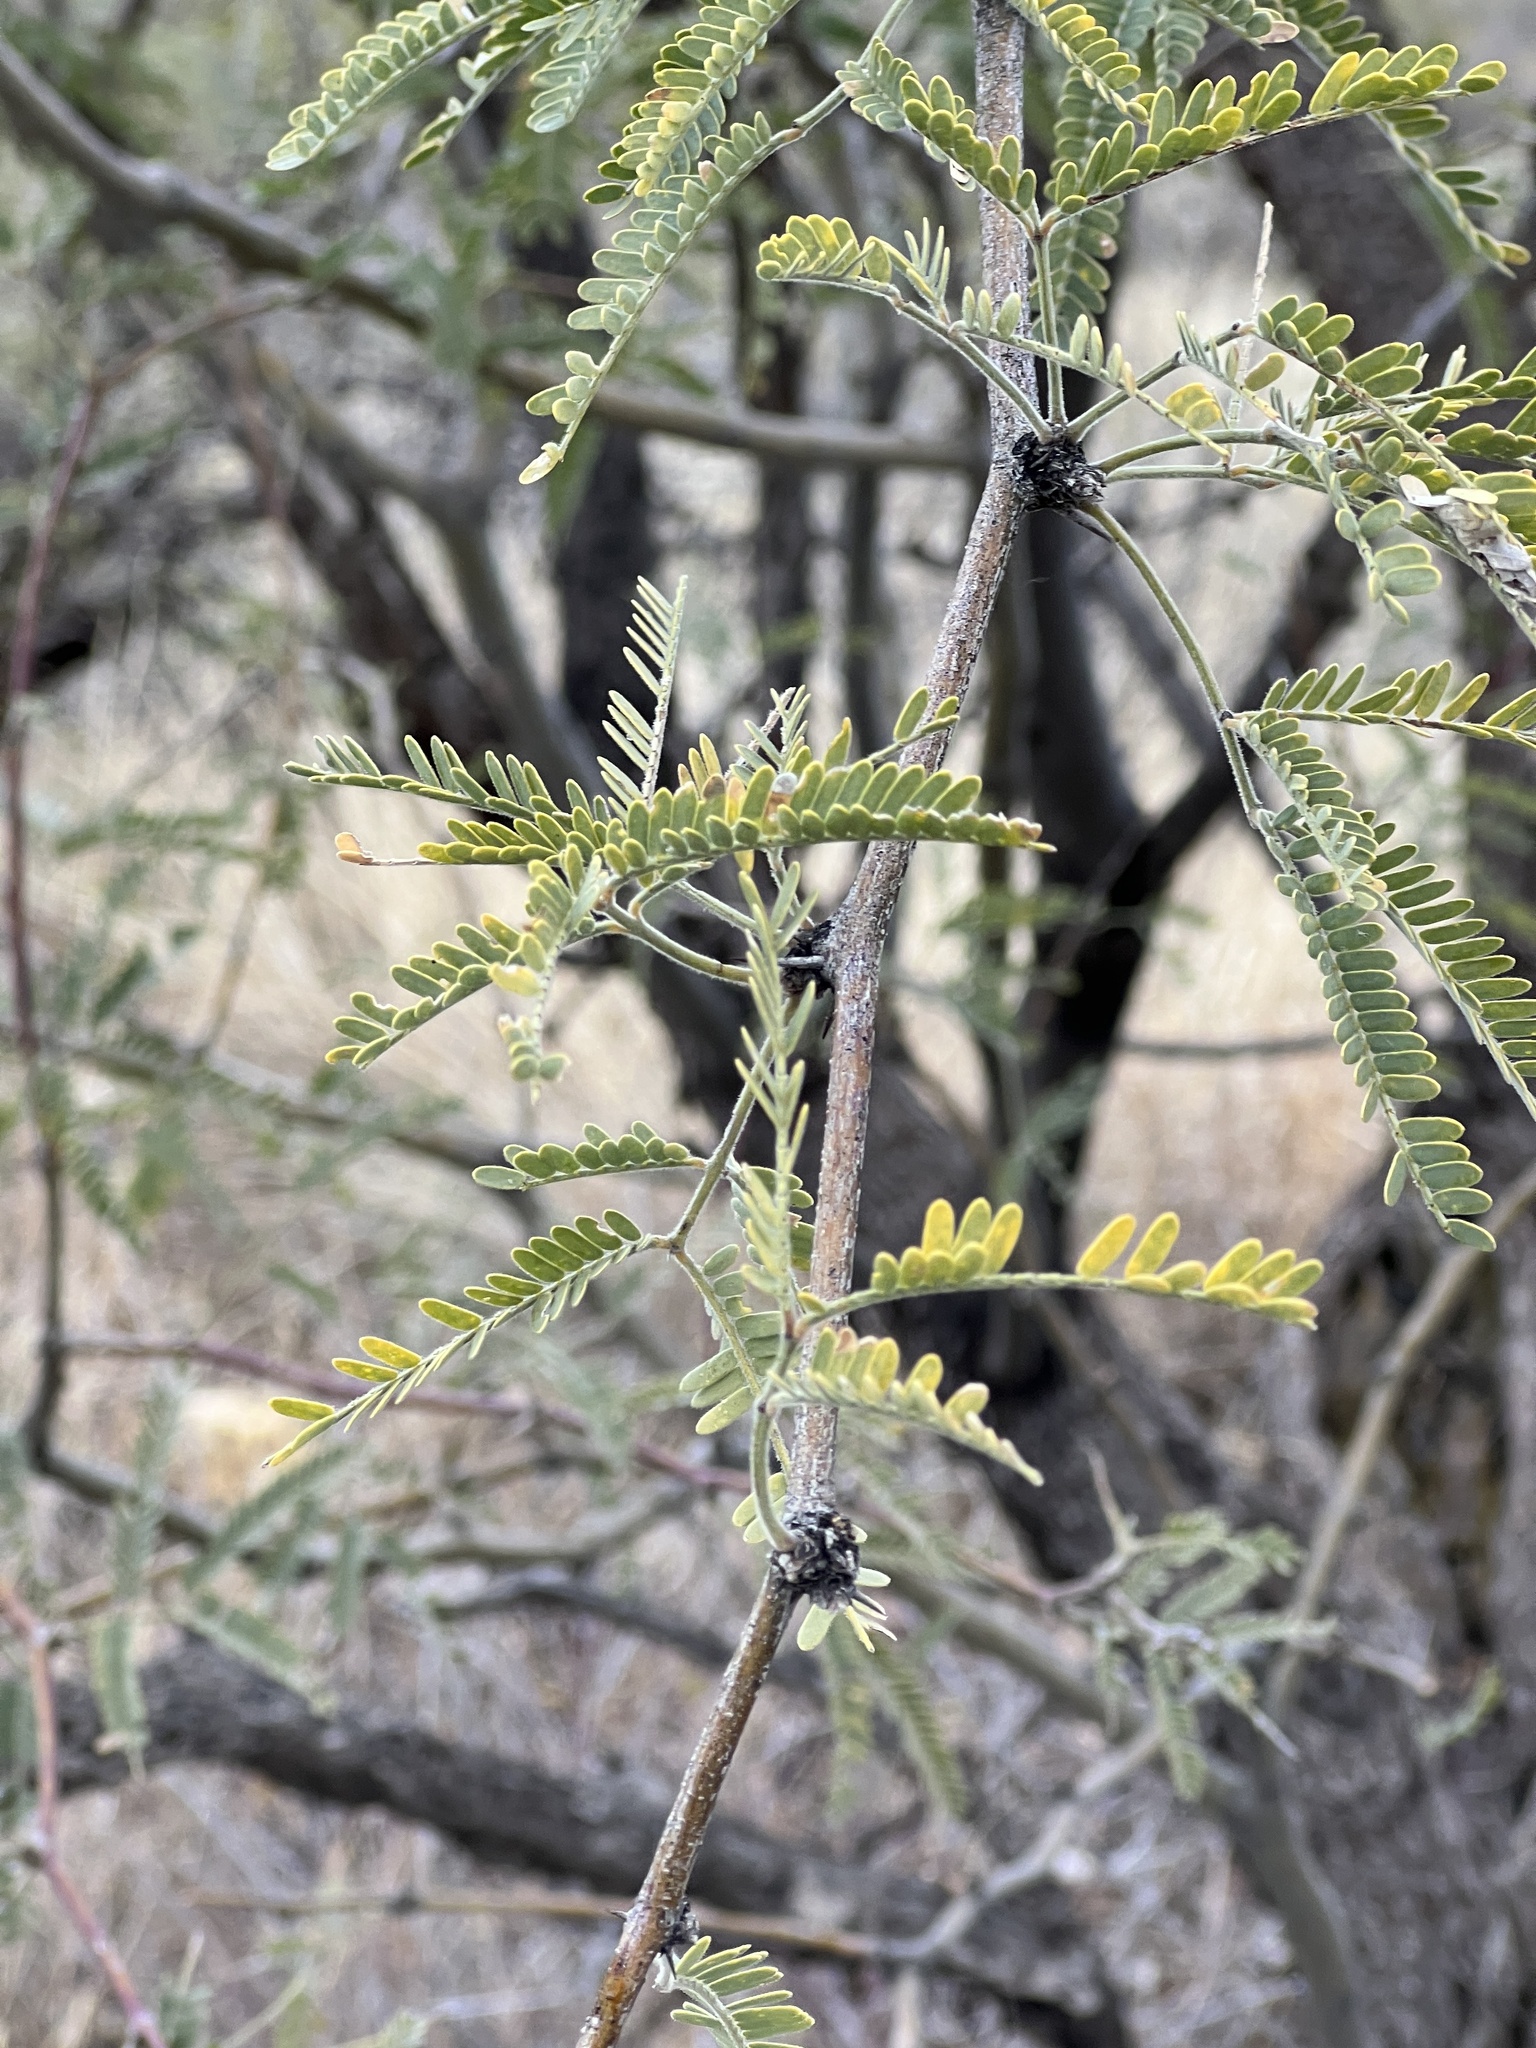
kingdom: Plantae
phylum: Tracheophyta
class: Magnoliopsida
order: Fabales
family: Fabaceae
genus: Prosopis
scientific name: Prosopis velutina
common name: Velvet mesquite
